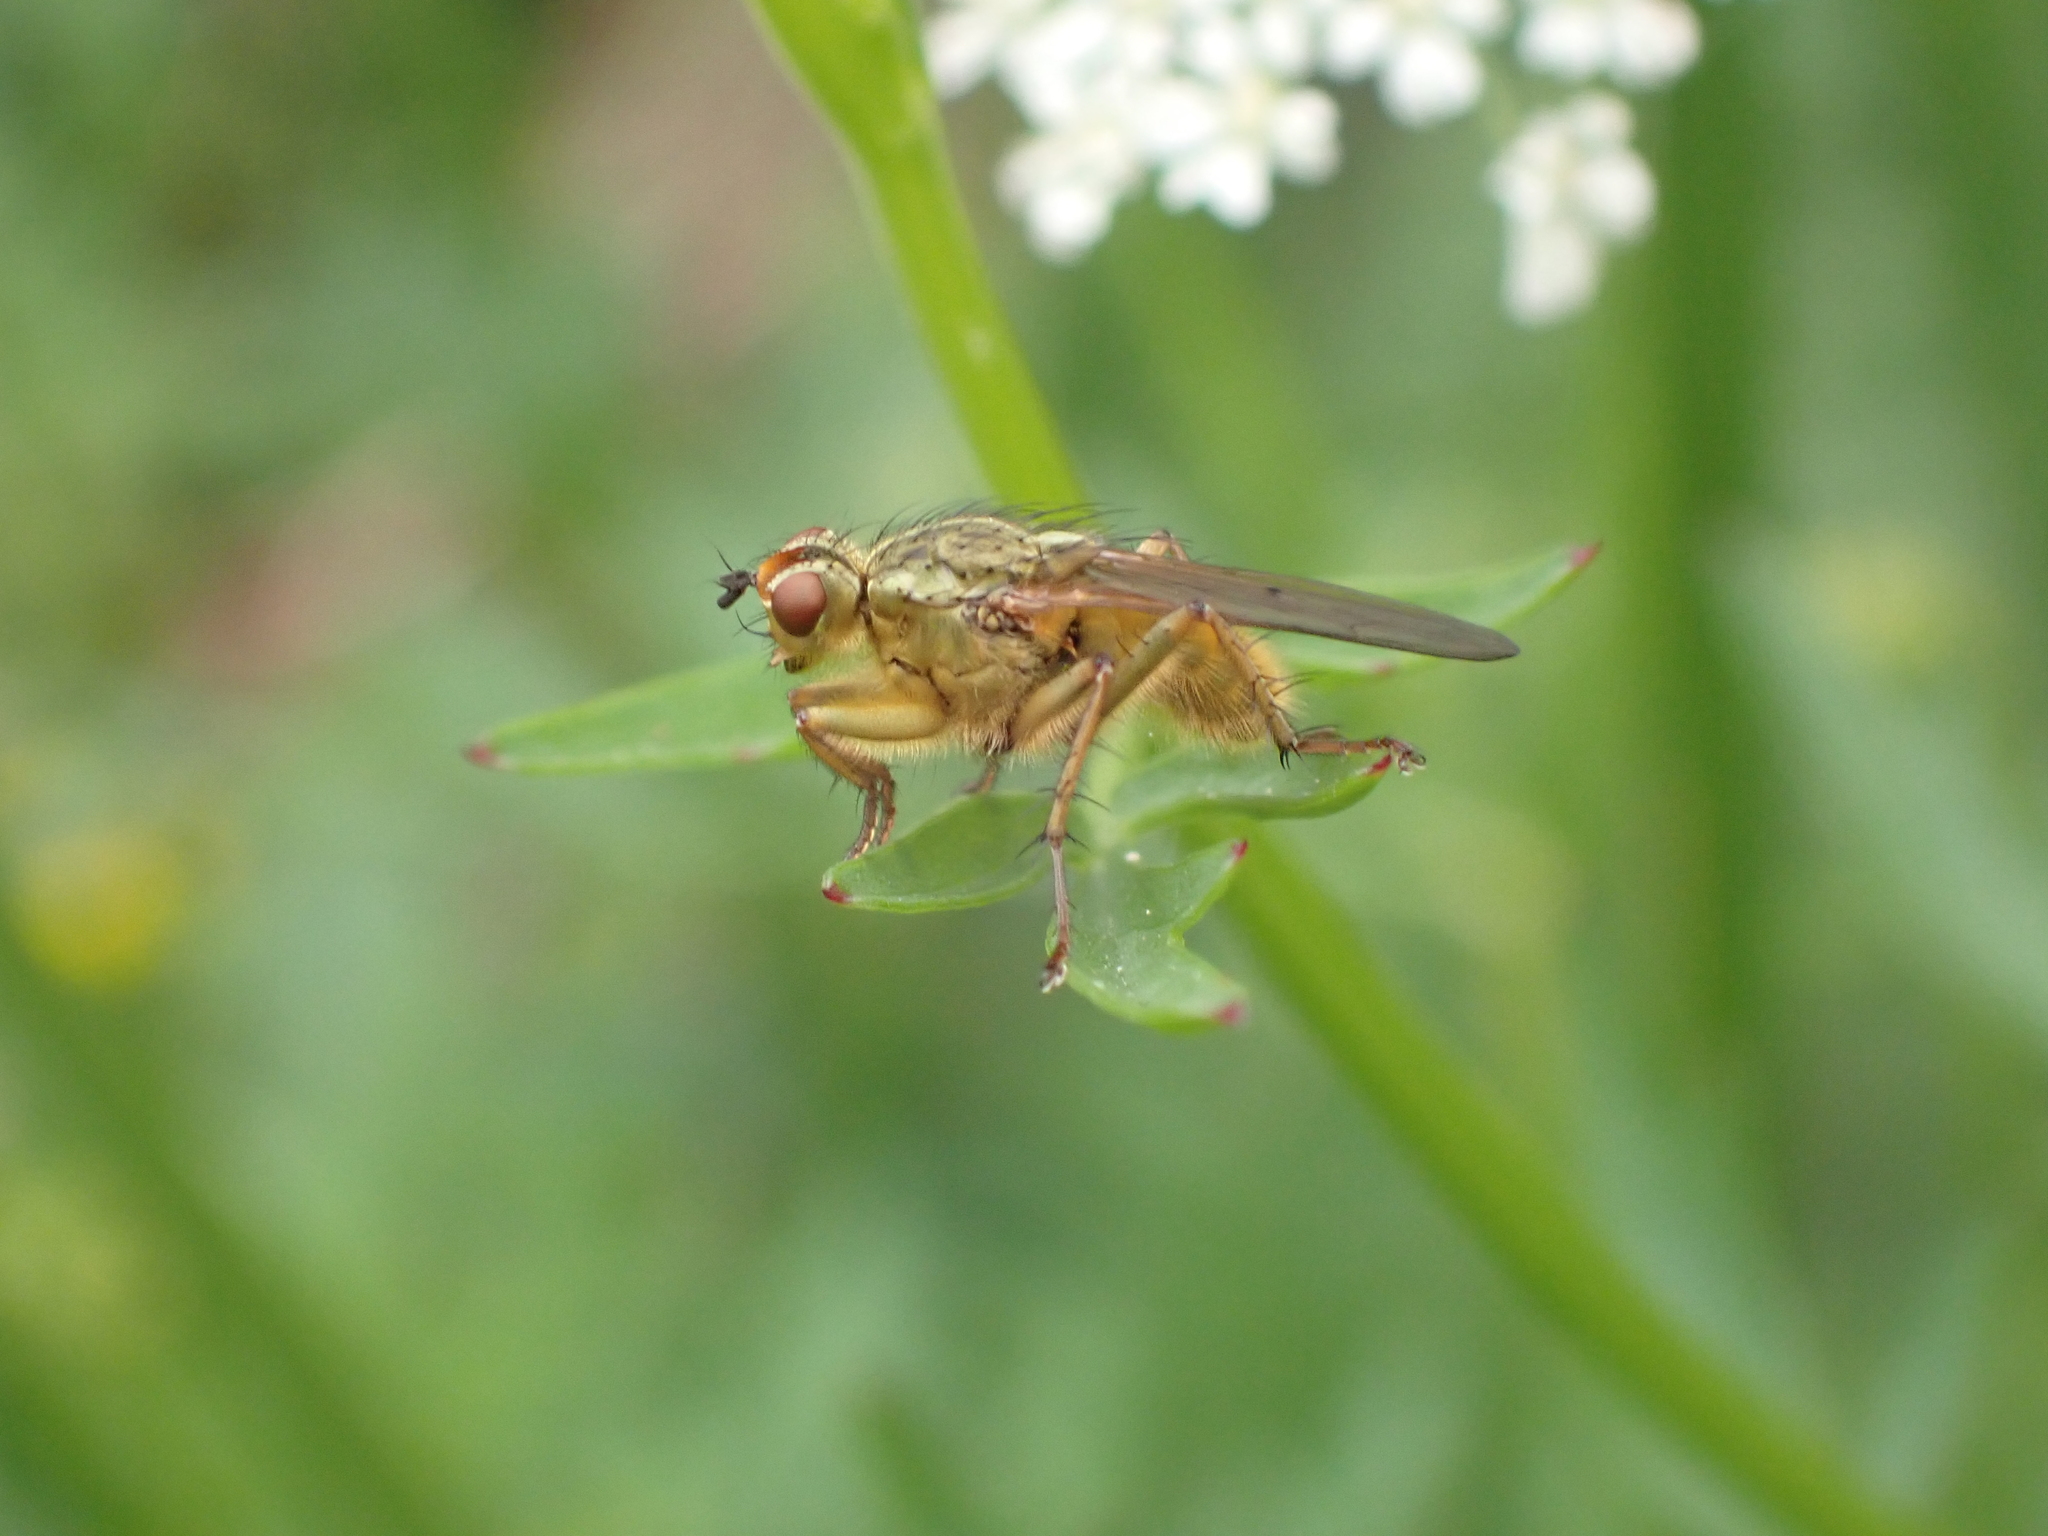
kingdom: Animalia
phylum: Arthropoda
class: Insecta
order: Diptera
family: Scathophagidae
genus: Scathophaga
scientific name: Scathophaga stercoraria
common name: Yellow dung fly
